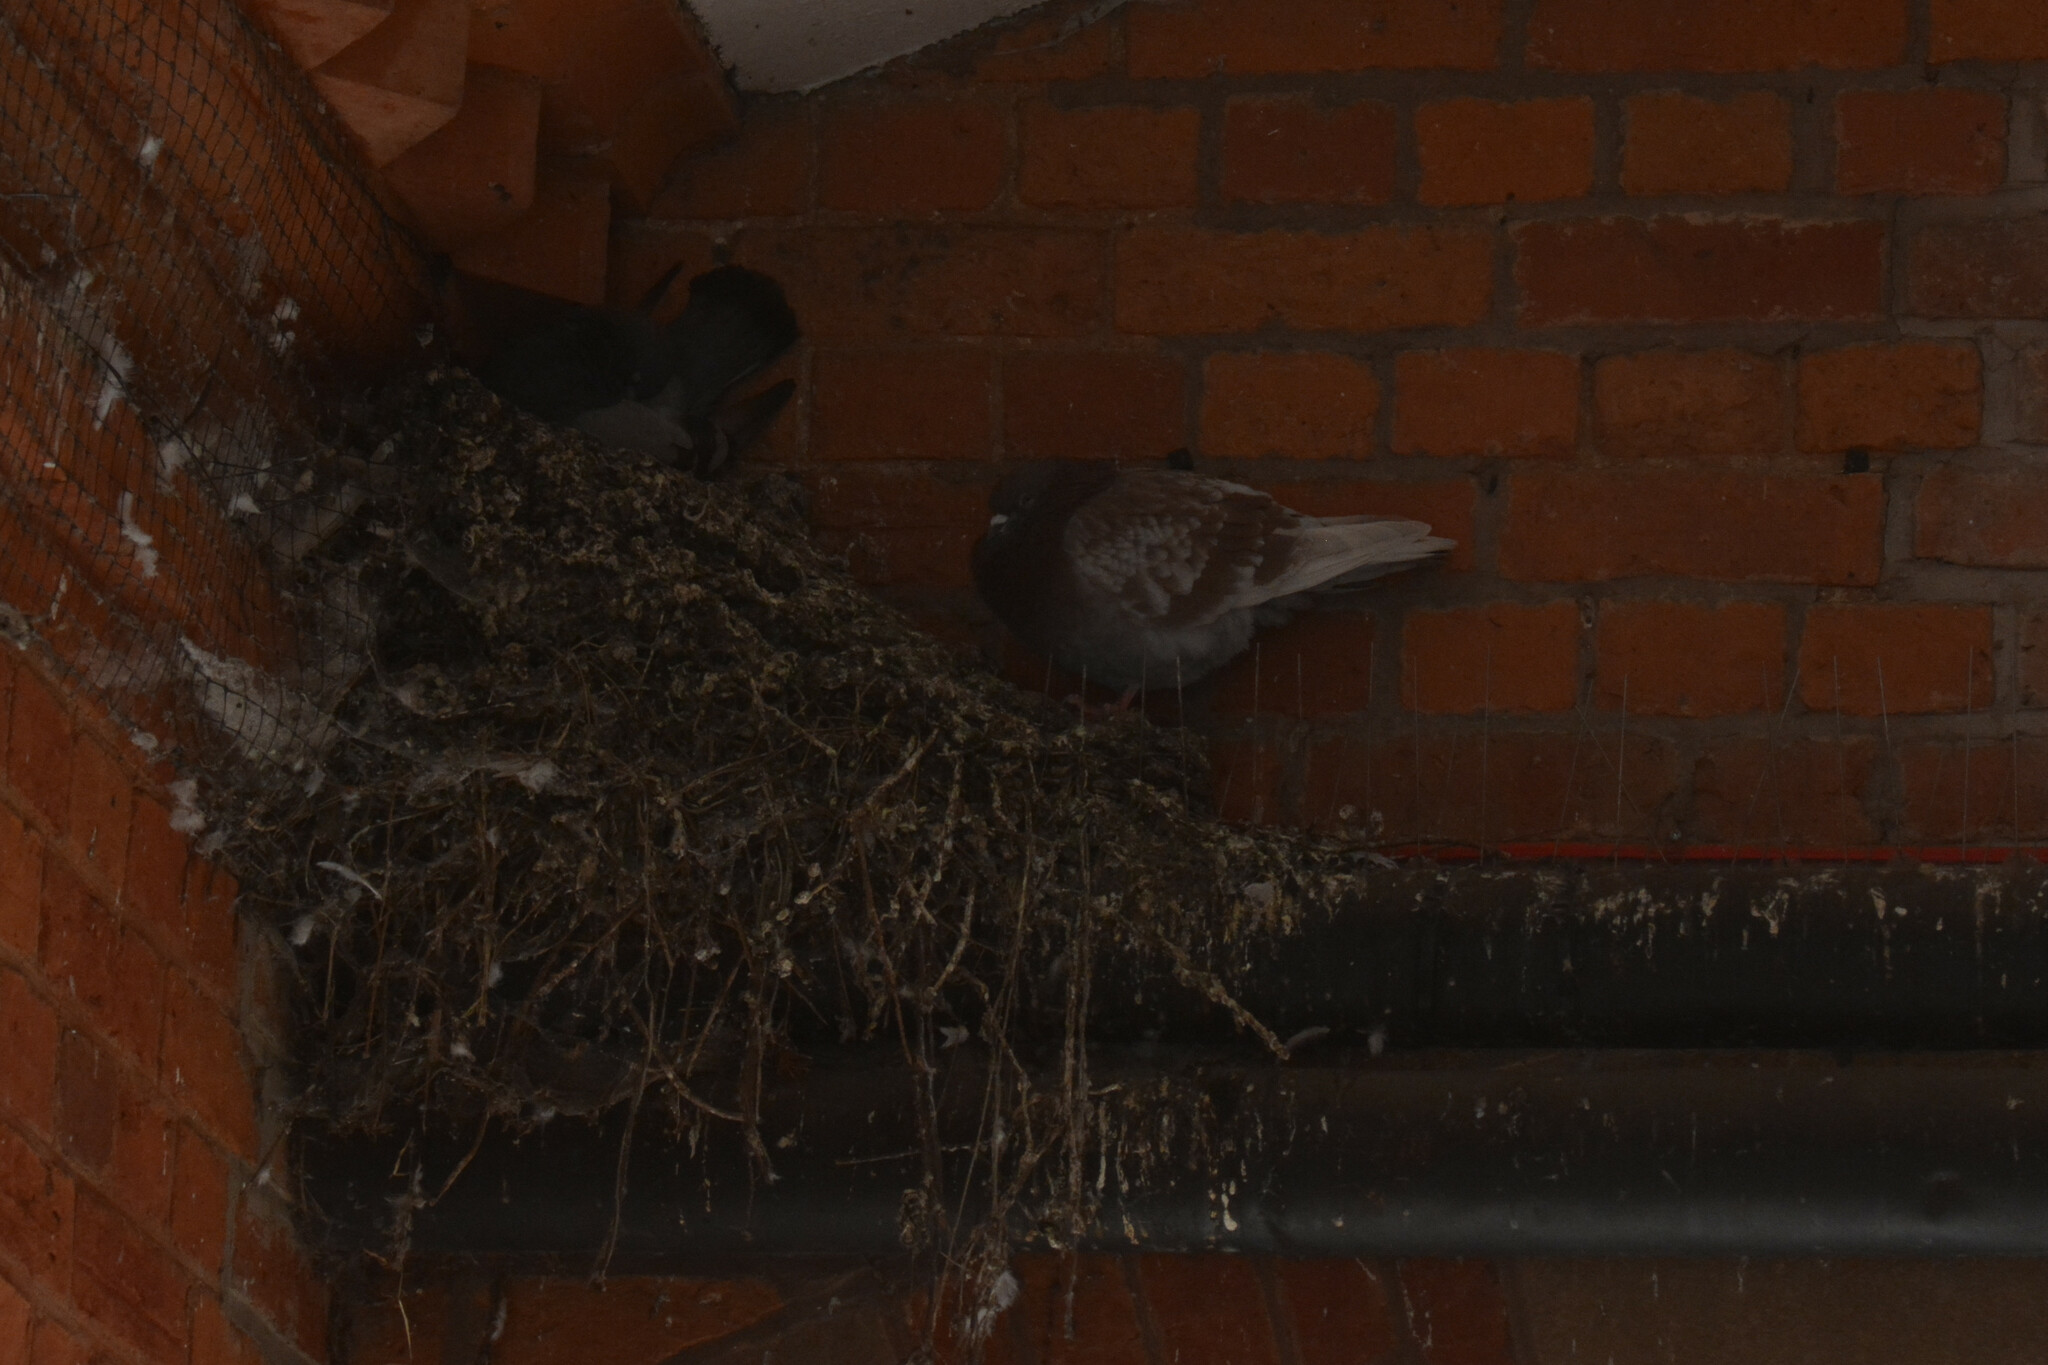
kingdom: Animalia
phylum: Chordata
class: Aves
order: Columbiformes
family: Columbidae
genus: Columba
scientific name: Columba livia
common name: Rock pigeon
